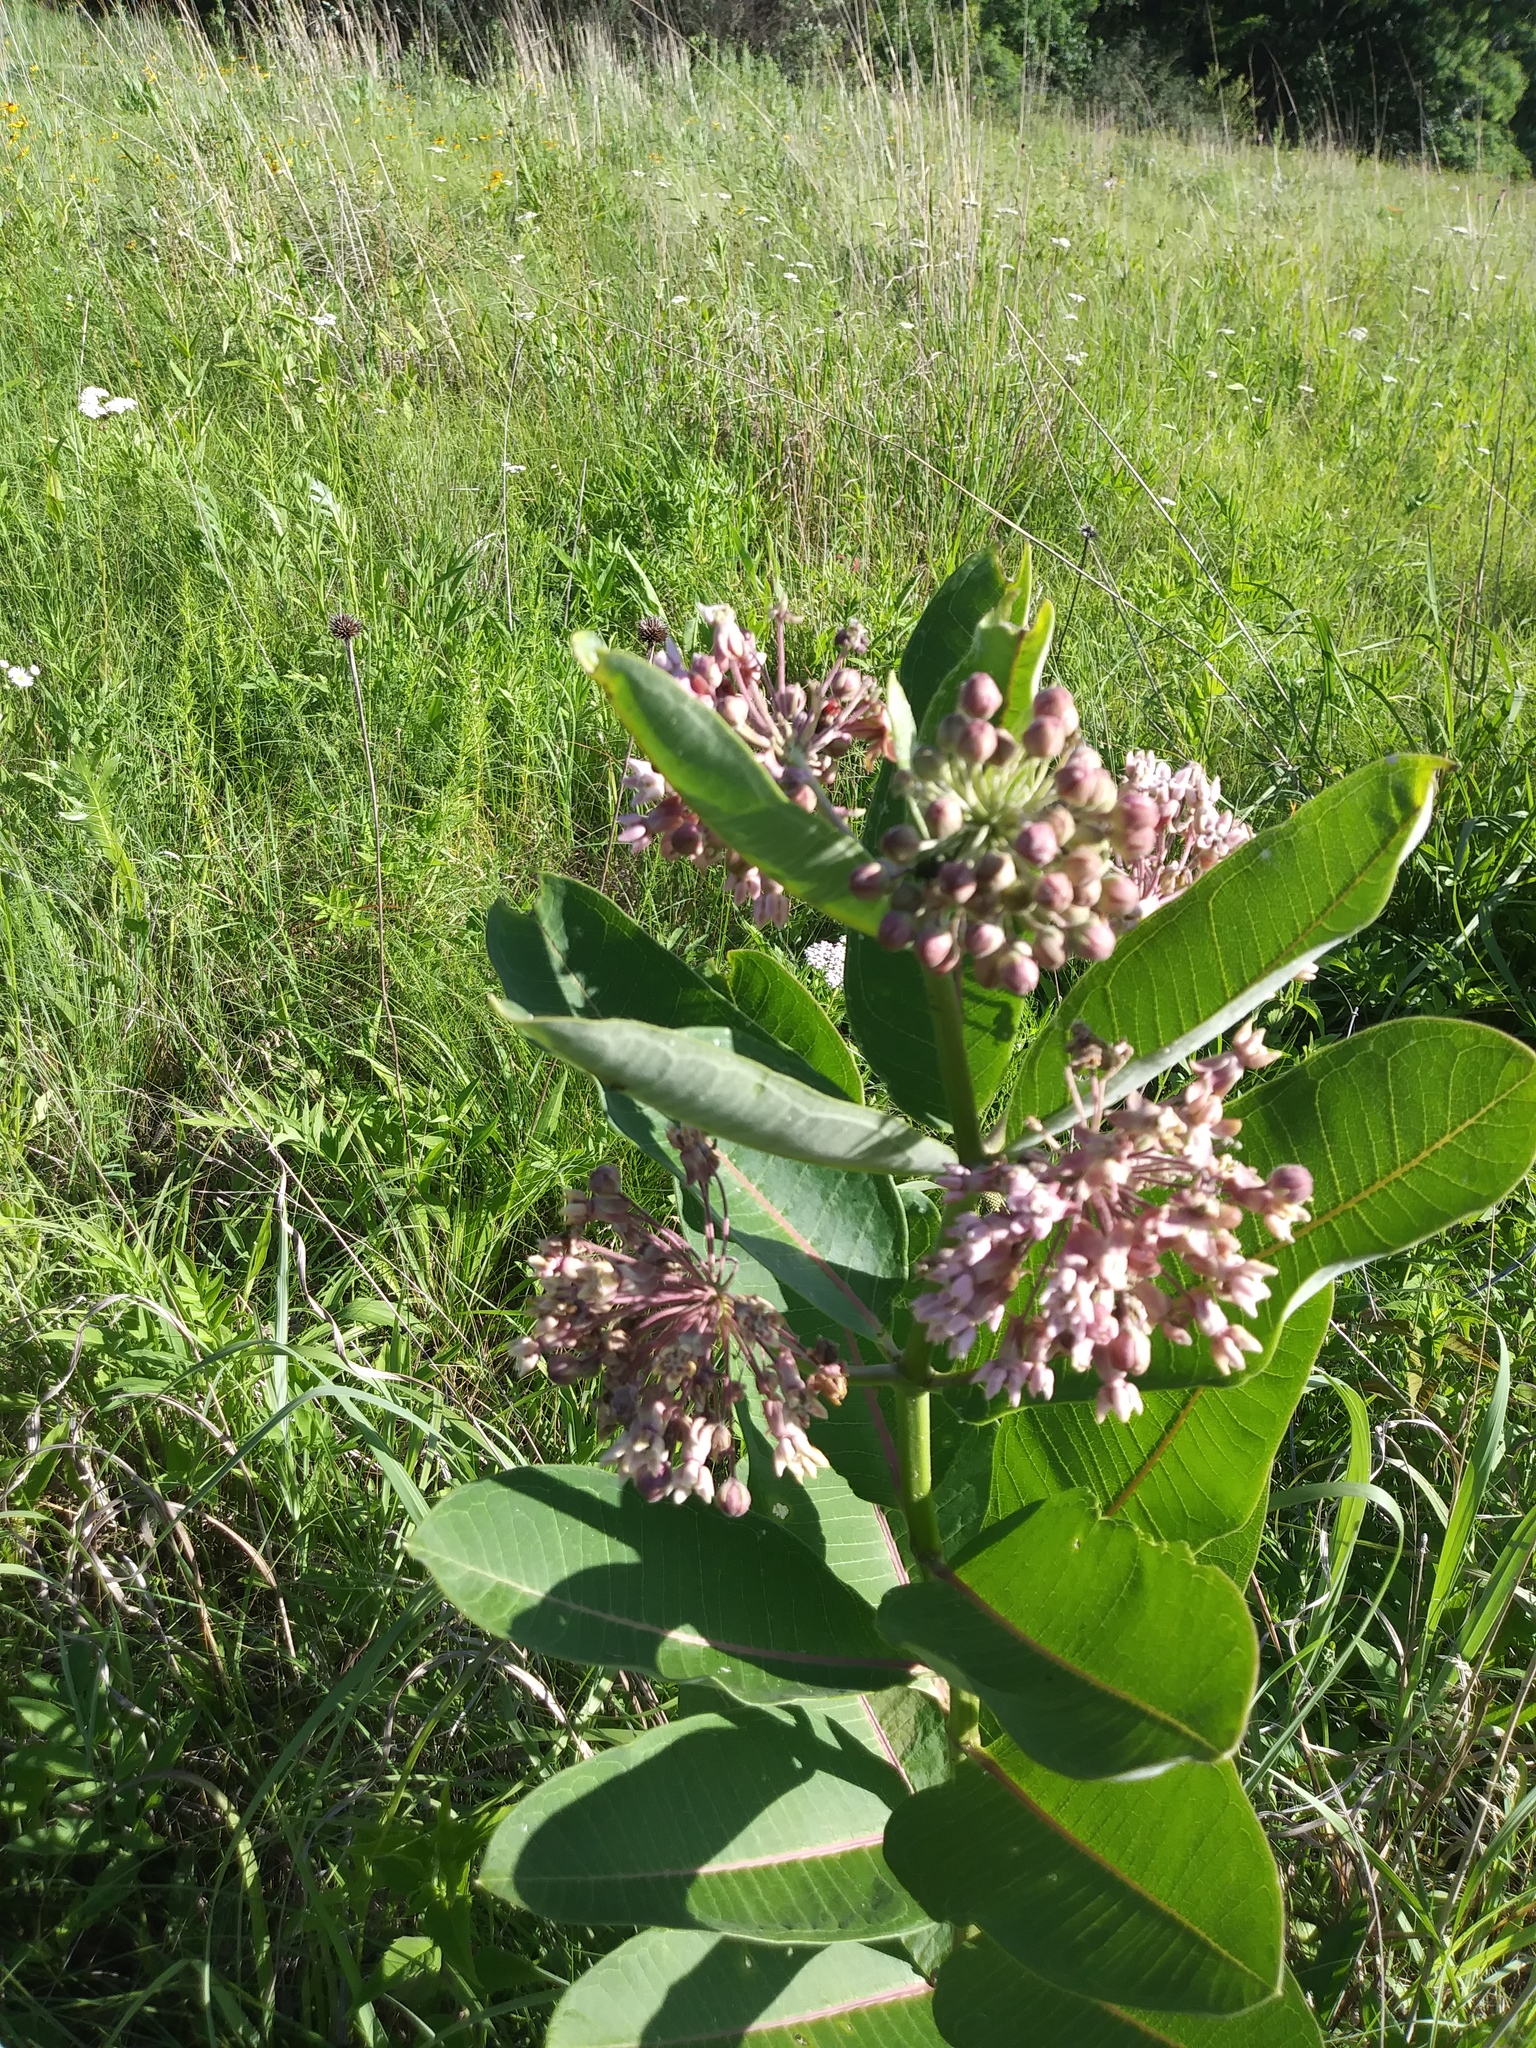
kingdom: Plantae
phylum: Tracheophyta
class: Magnoliopsida
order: Gentianales
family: Apocynaceae
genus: Asclepias
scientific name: Asclepias syriaca
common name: Common milkweed
